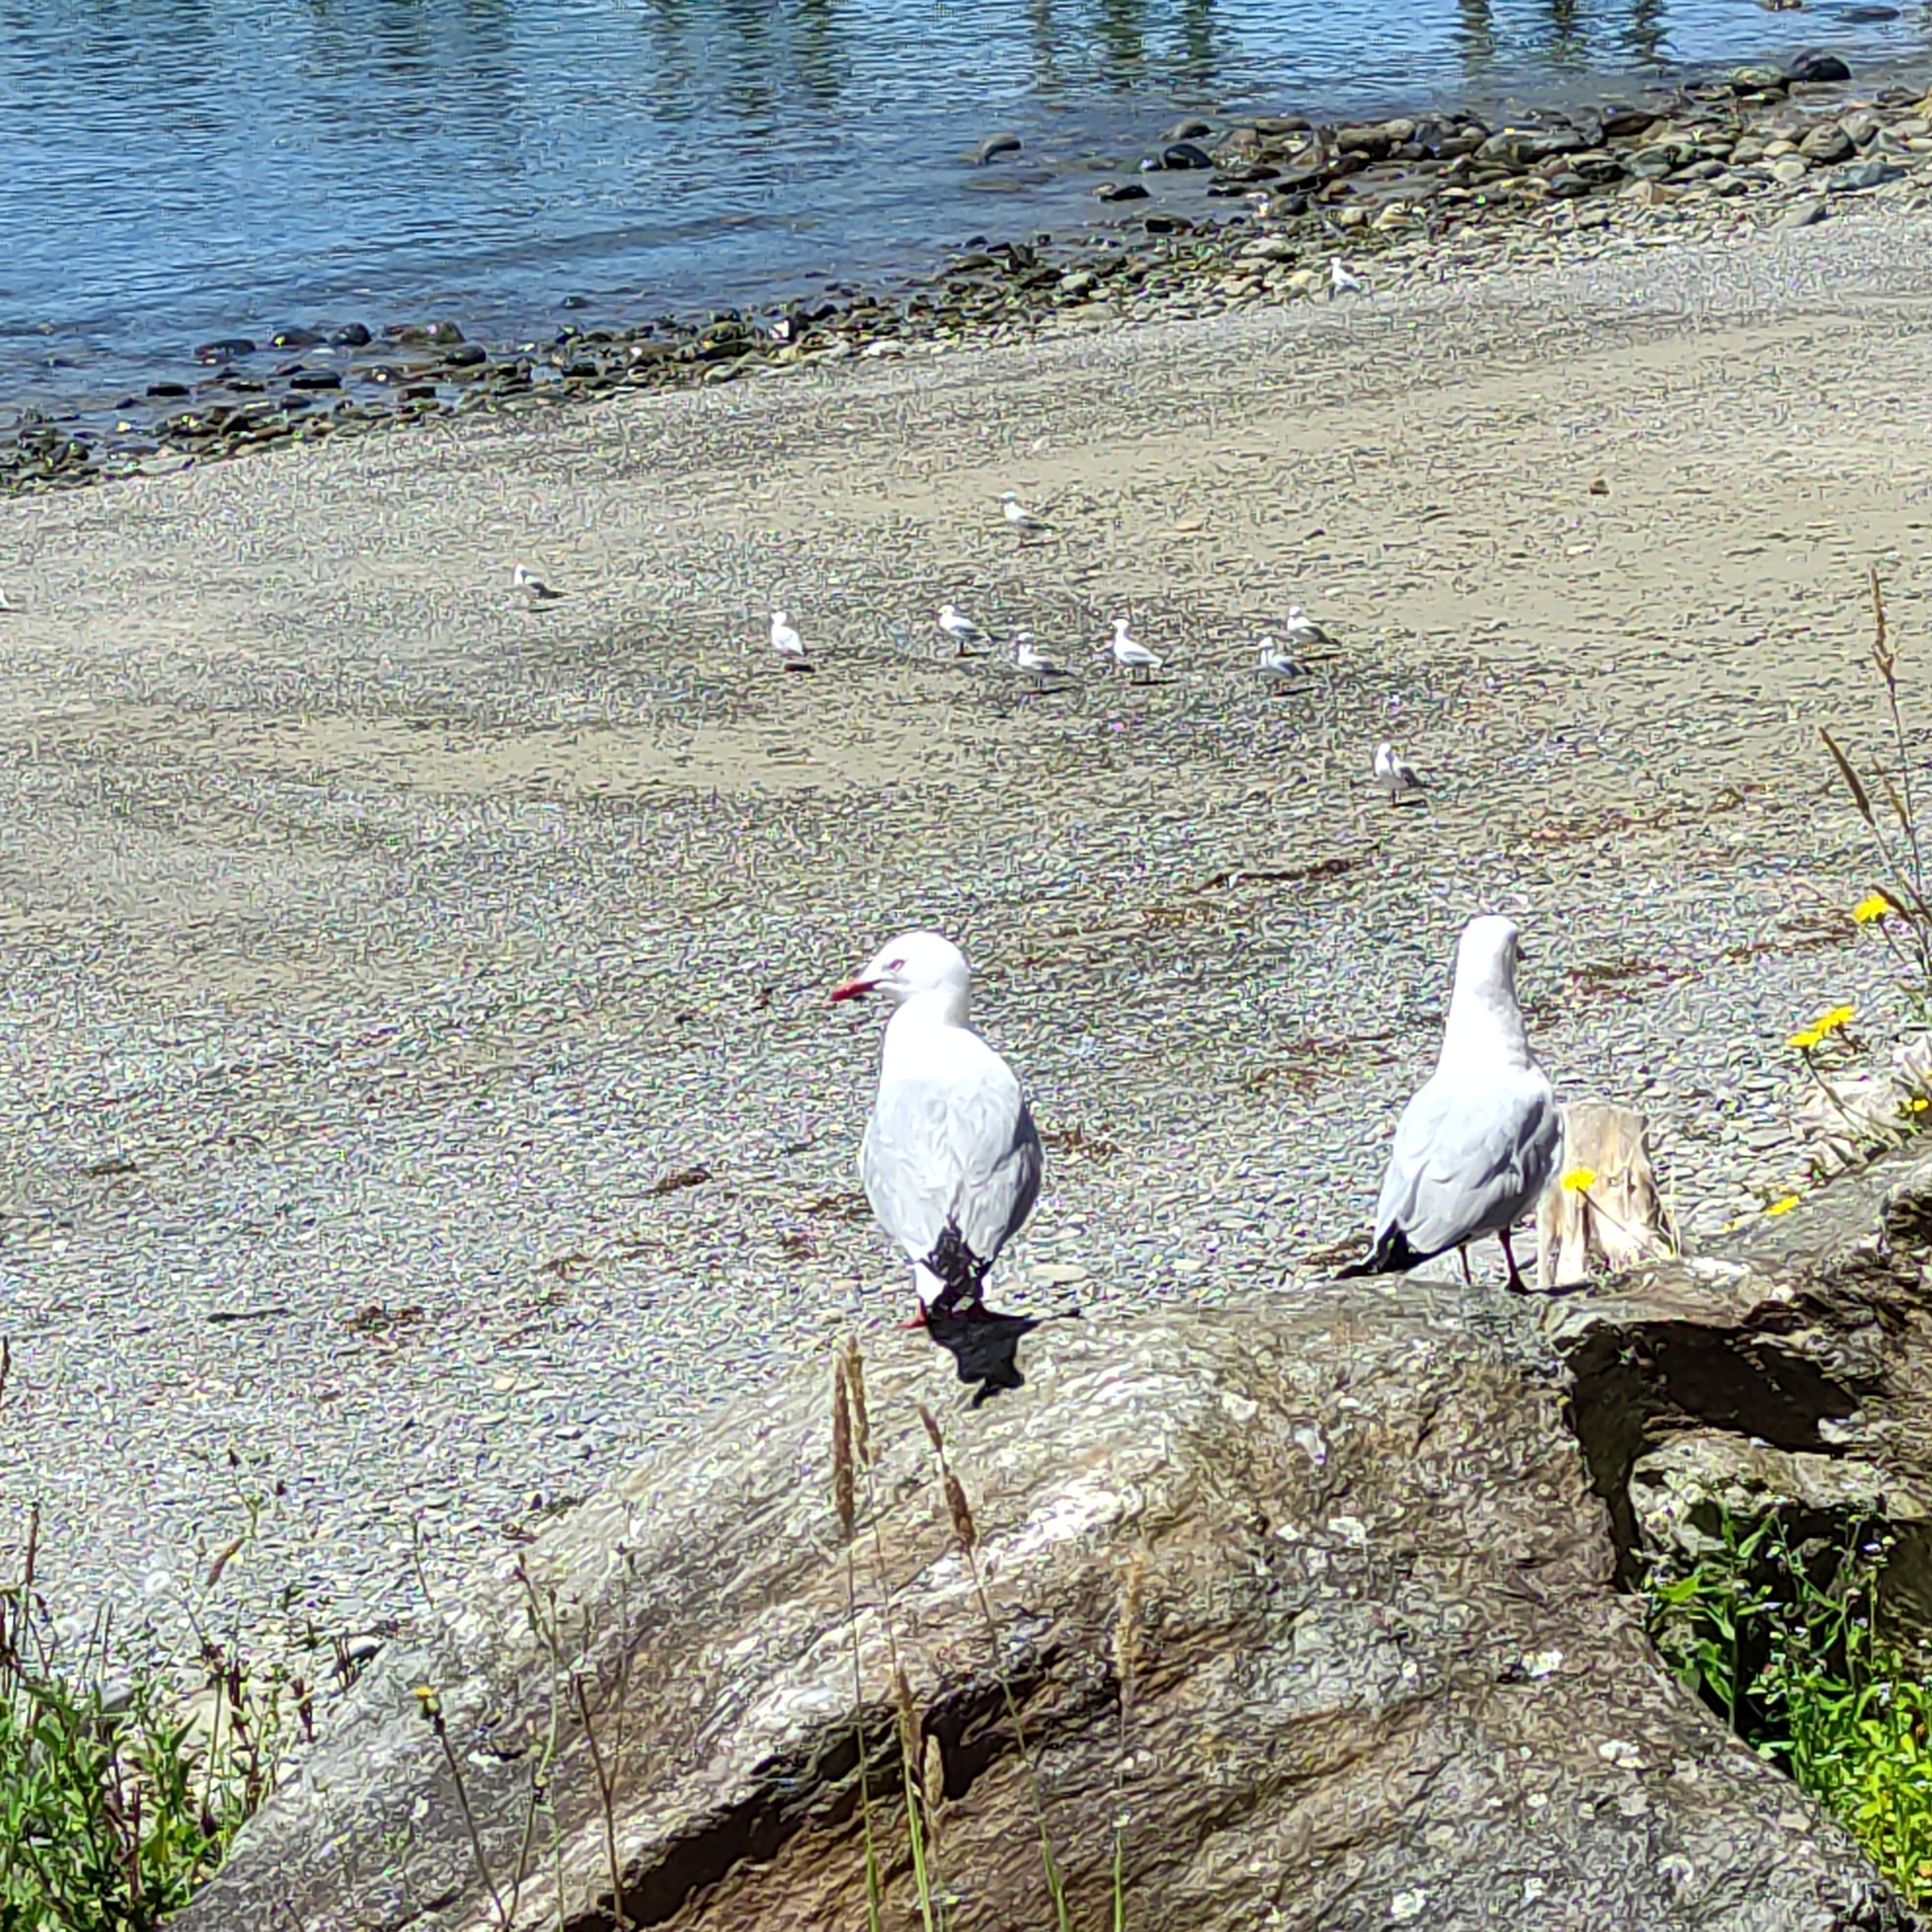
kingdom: Animalia
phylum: Chordata
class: Aves
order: Charadriiformes
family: Laridae
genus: Chroicocephalus
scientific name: Chroicocephalus novaehollandiae
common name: Silver gull
